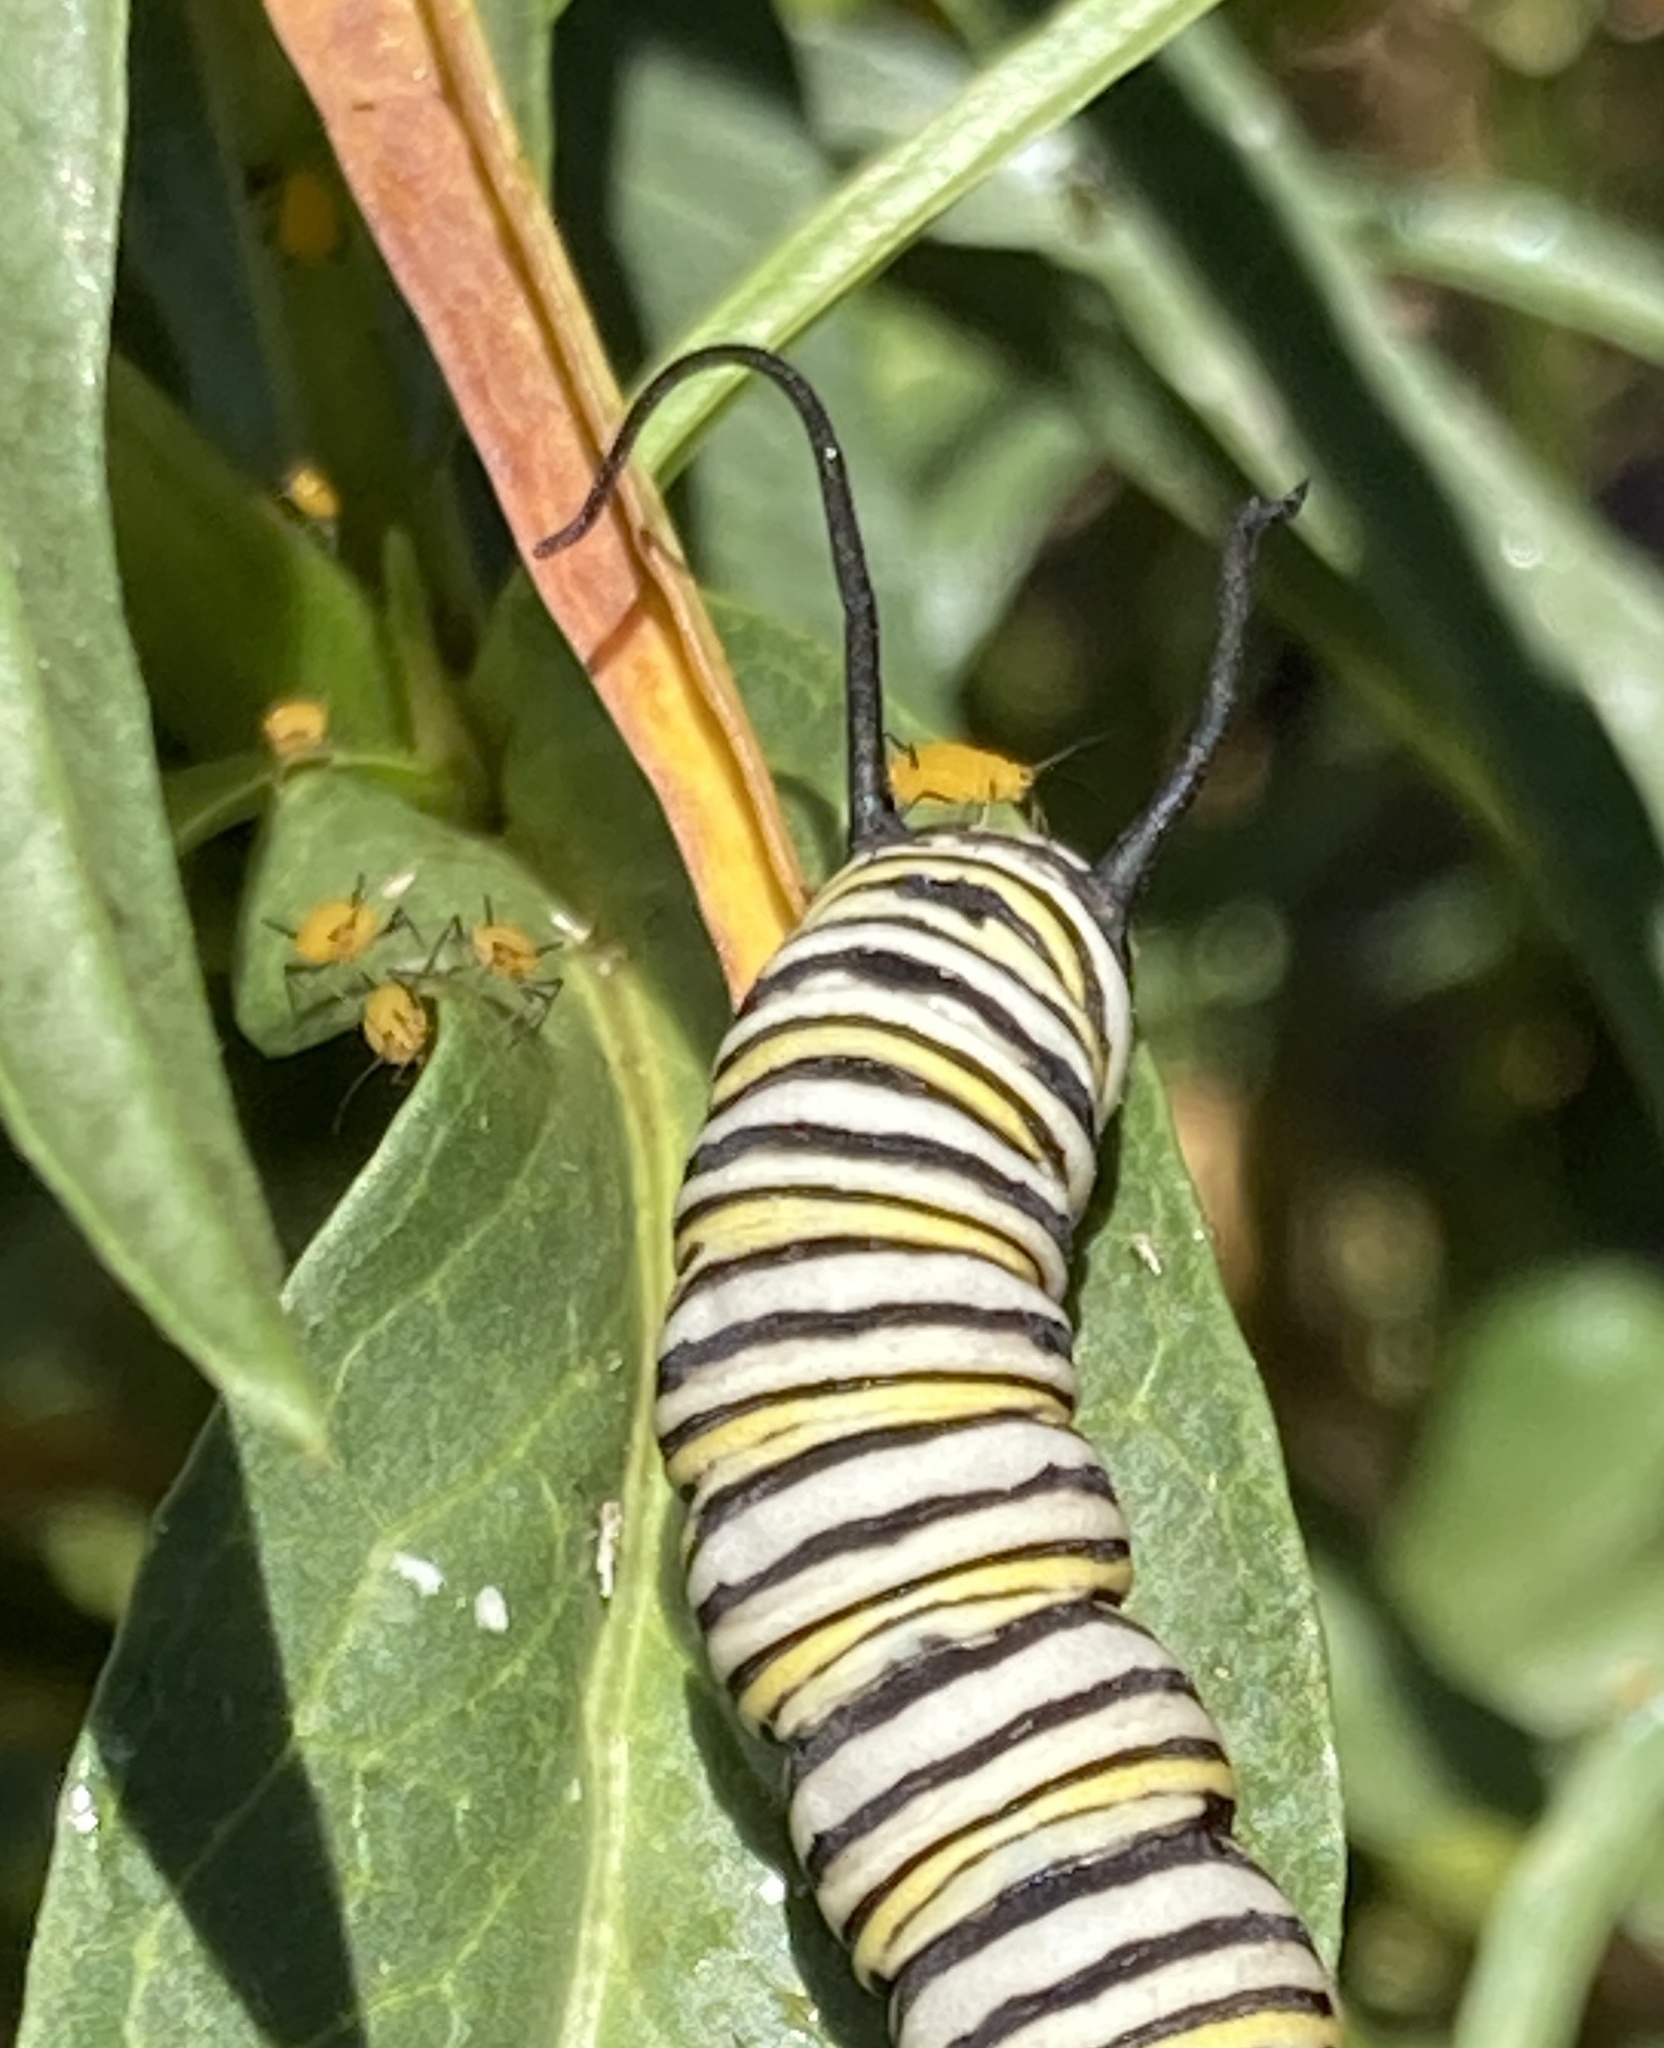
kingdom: Animalia
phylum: Arthropoda
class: Insecta
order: Hemiptera
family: Aphididae
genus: Aphis
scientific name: Aphis nerii
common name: Oleander aphid
